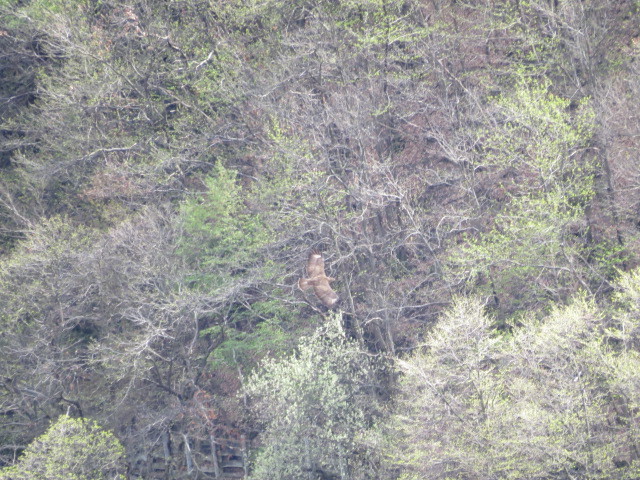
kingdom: Animalia
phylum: Chordata
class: Aves
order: Accipitriformes
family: Accipitridae
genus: Buteo
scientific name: Buteo buteo
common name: Common buzzard
